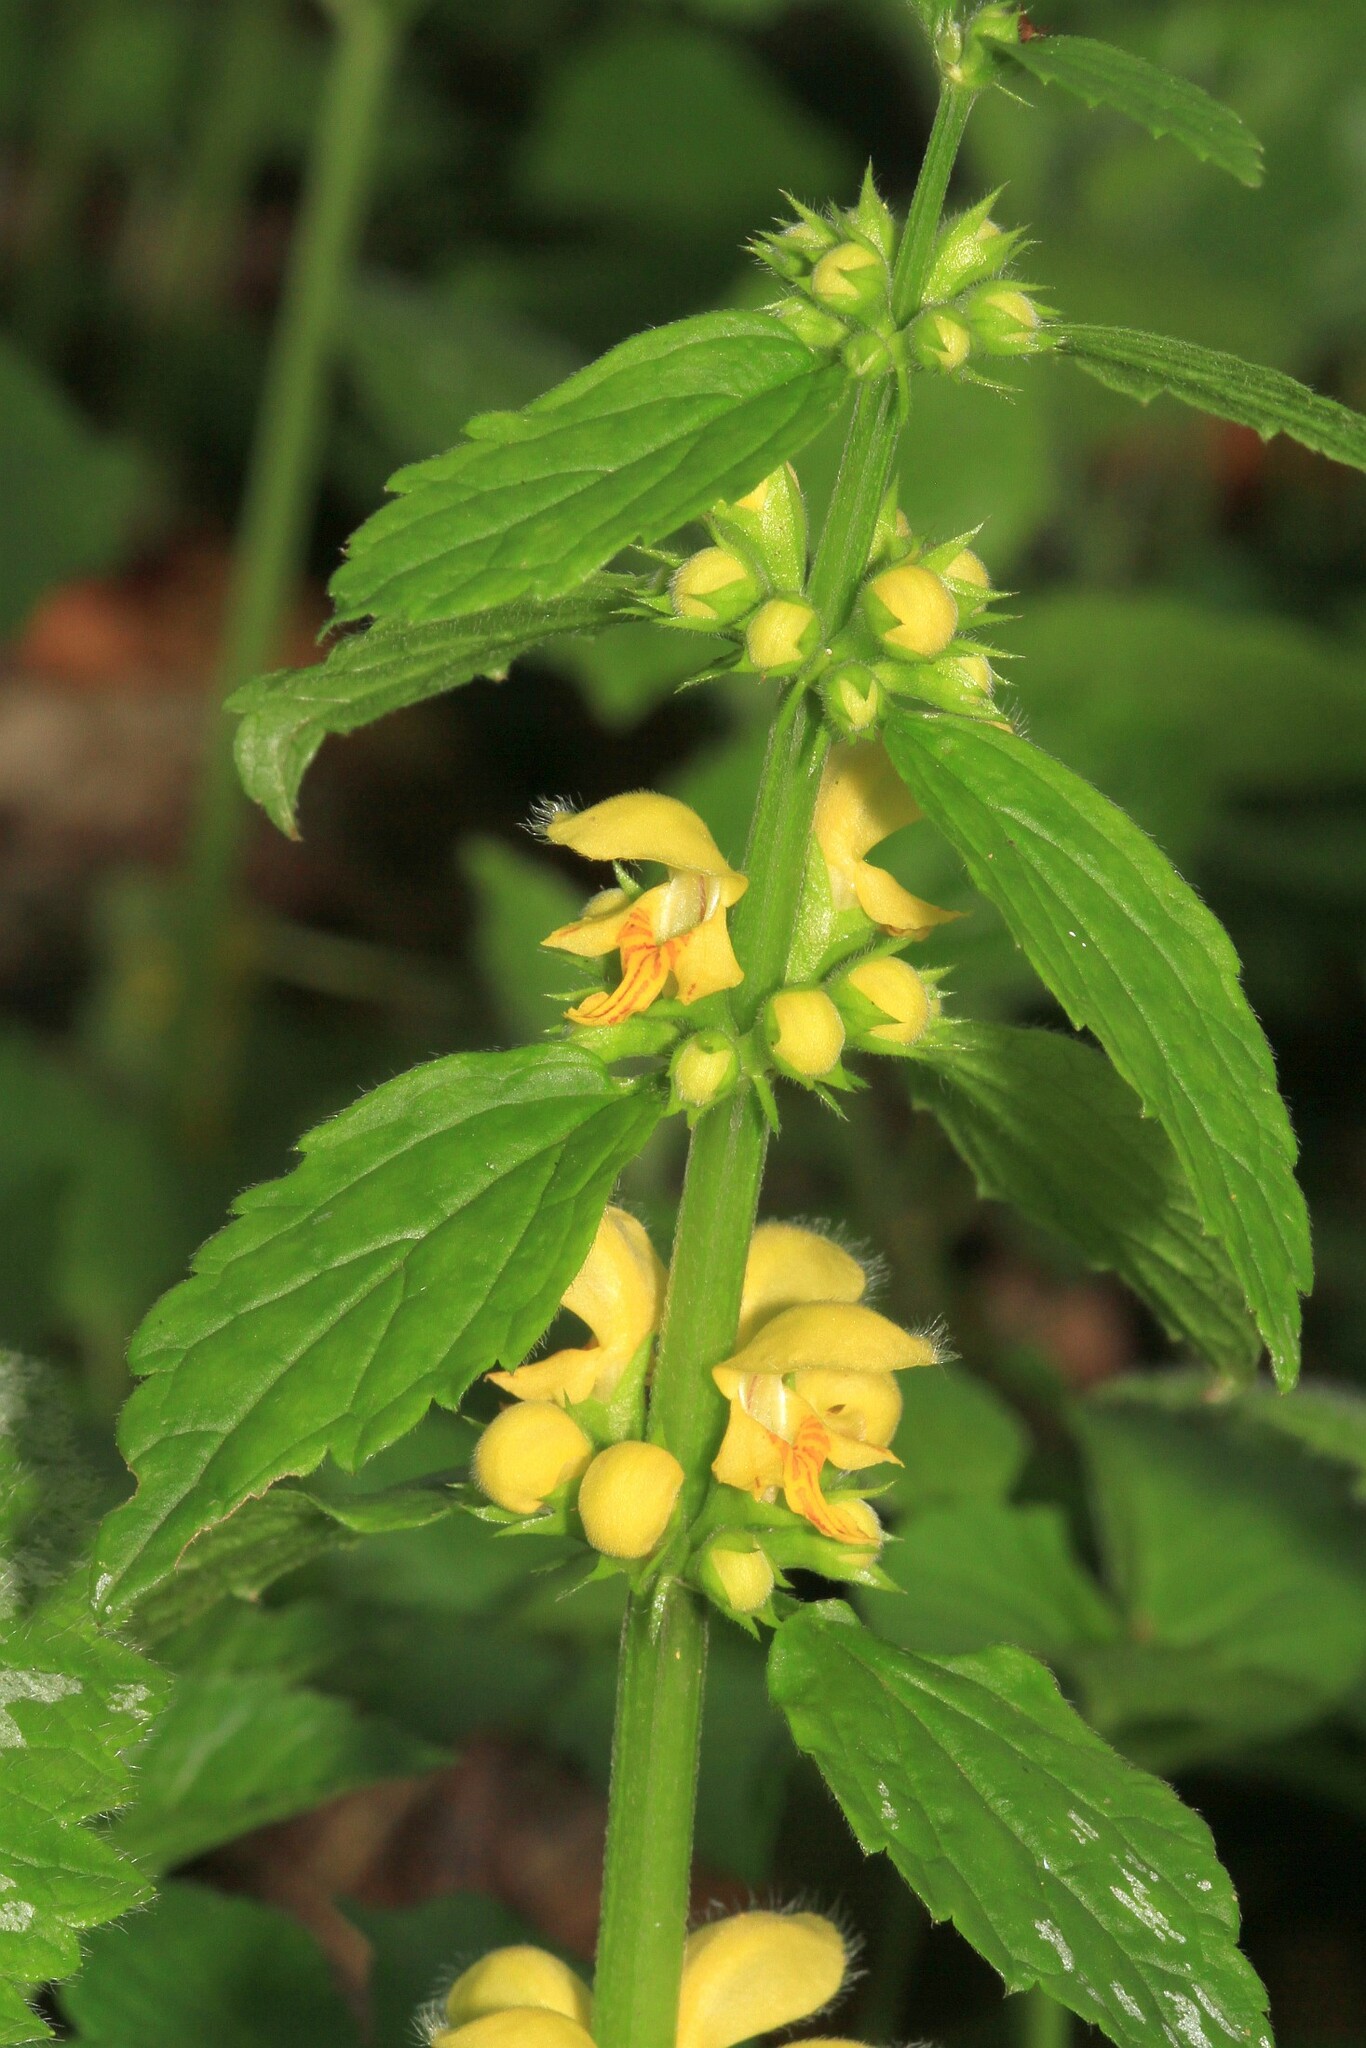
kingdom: Plantae
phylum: Tracheophyta
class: Magnoliopsida
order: Lamiales
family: Lamiaceae
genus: Lamium
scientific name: Lamium galeobdolon
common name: Yellow archangel
